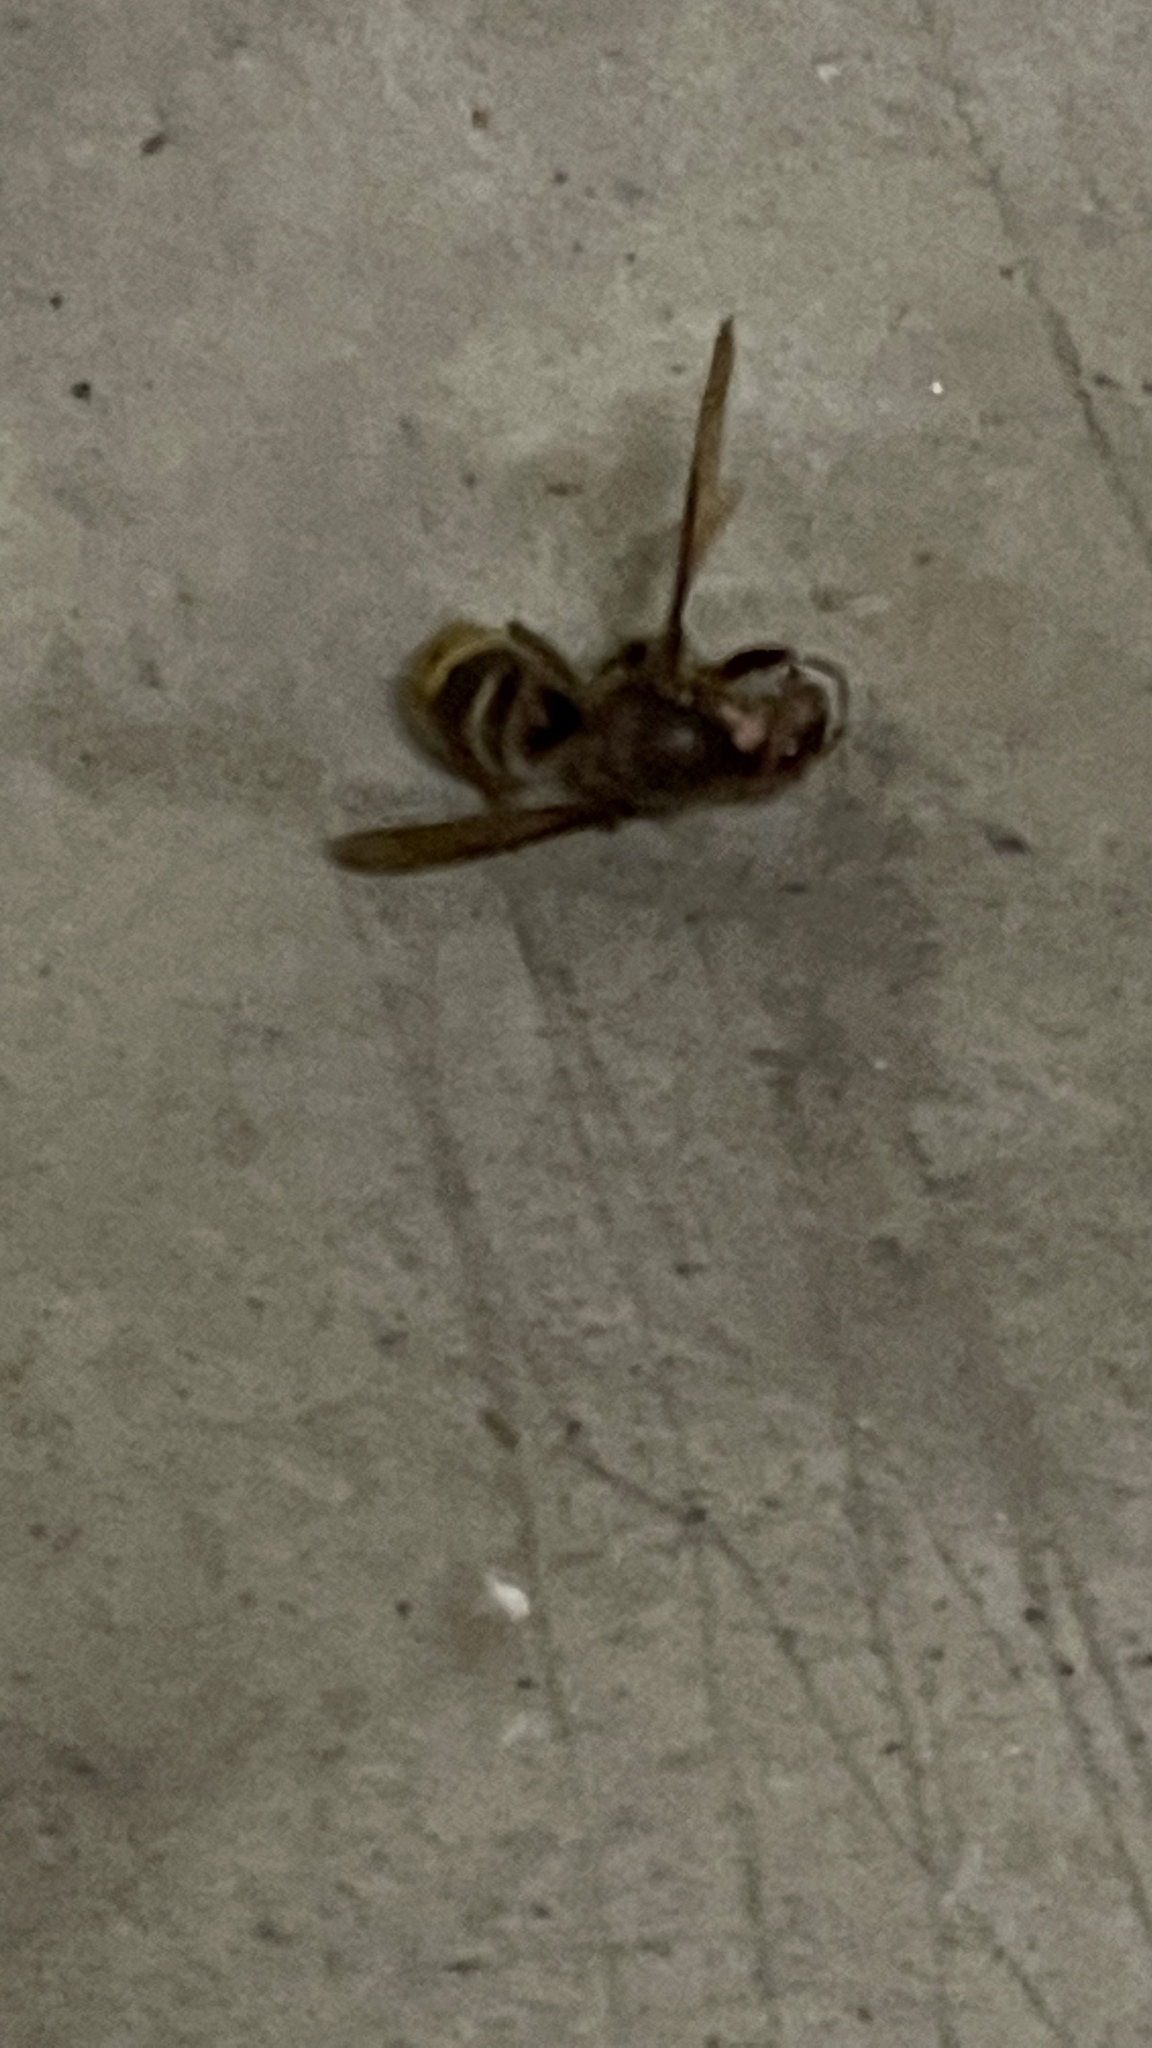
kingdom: Animalia
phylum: Arthropoda
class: Insecta
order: Hymenoptera
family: Vespidae
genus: Vespa
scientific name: Vespa crabro
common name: Hornet
